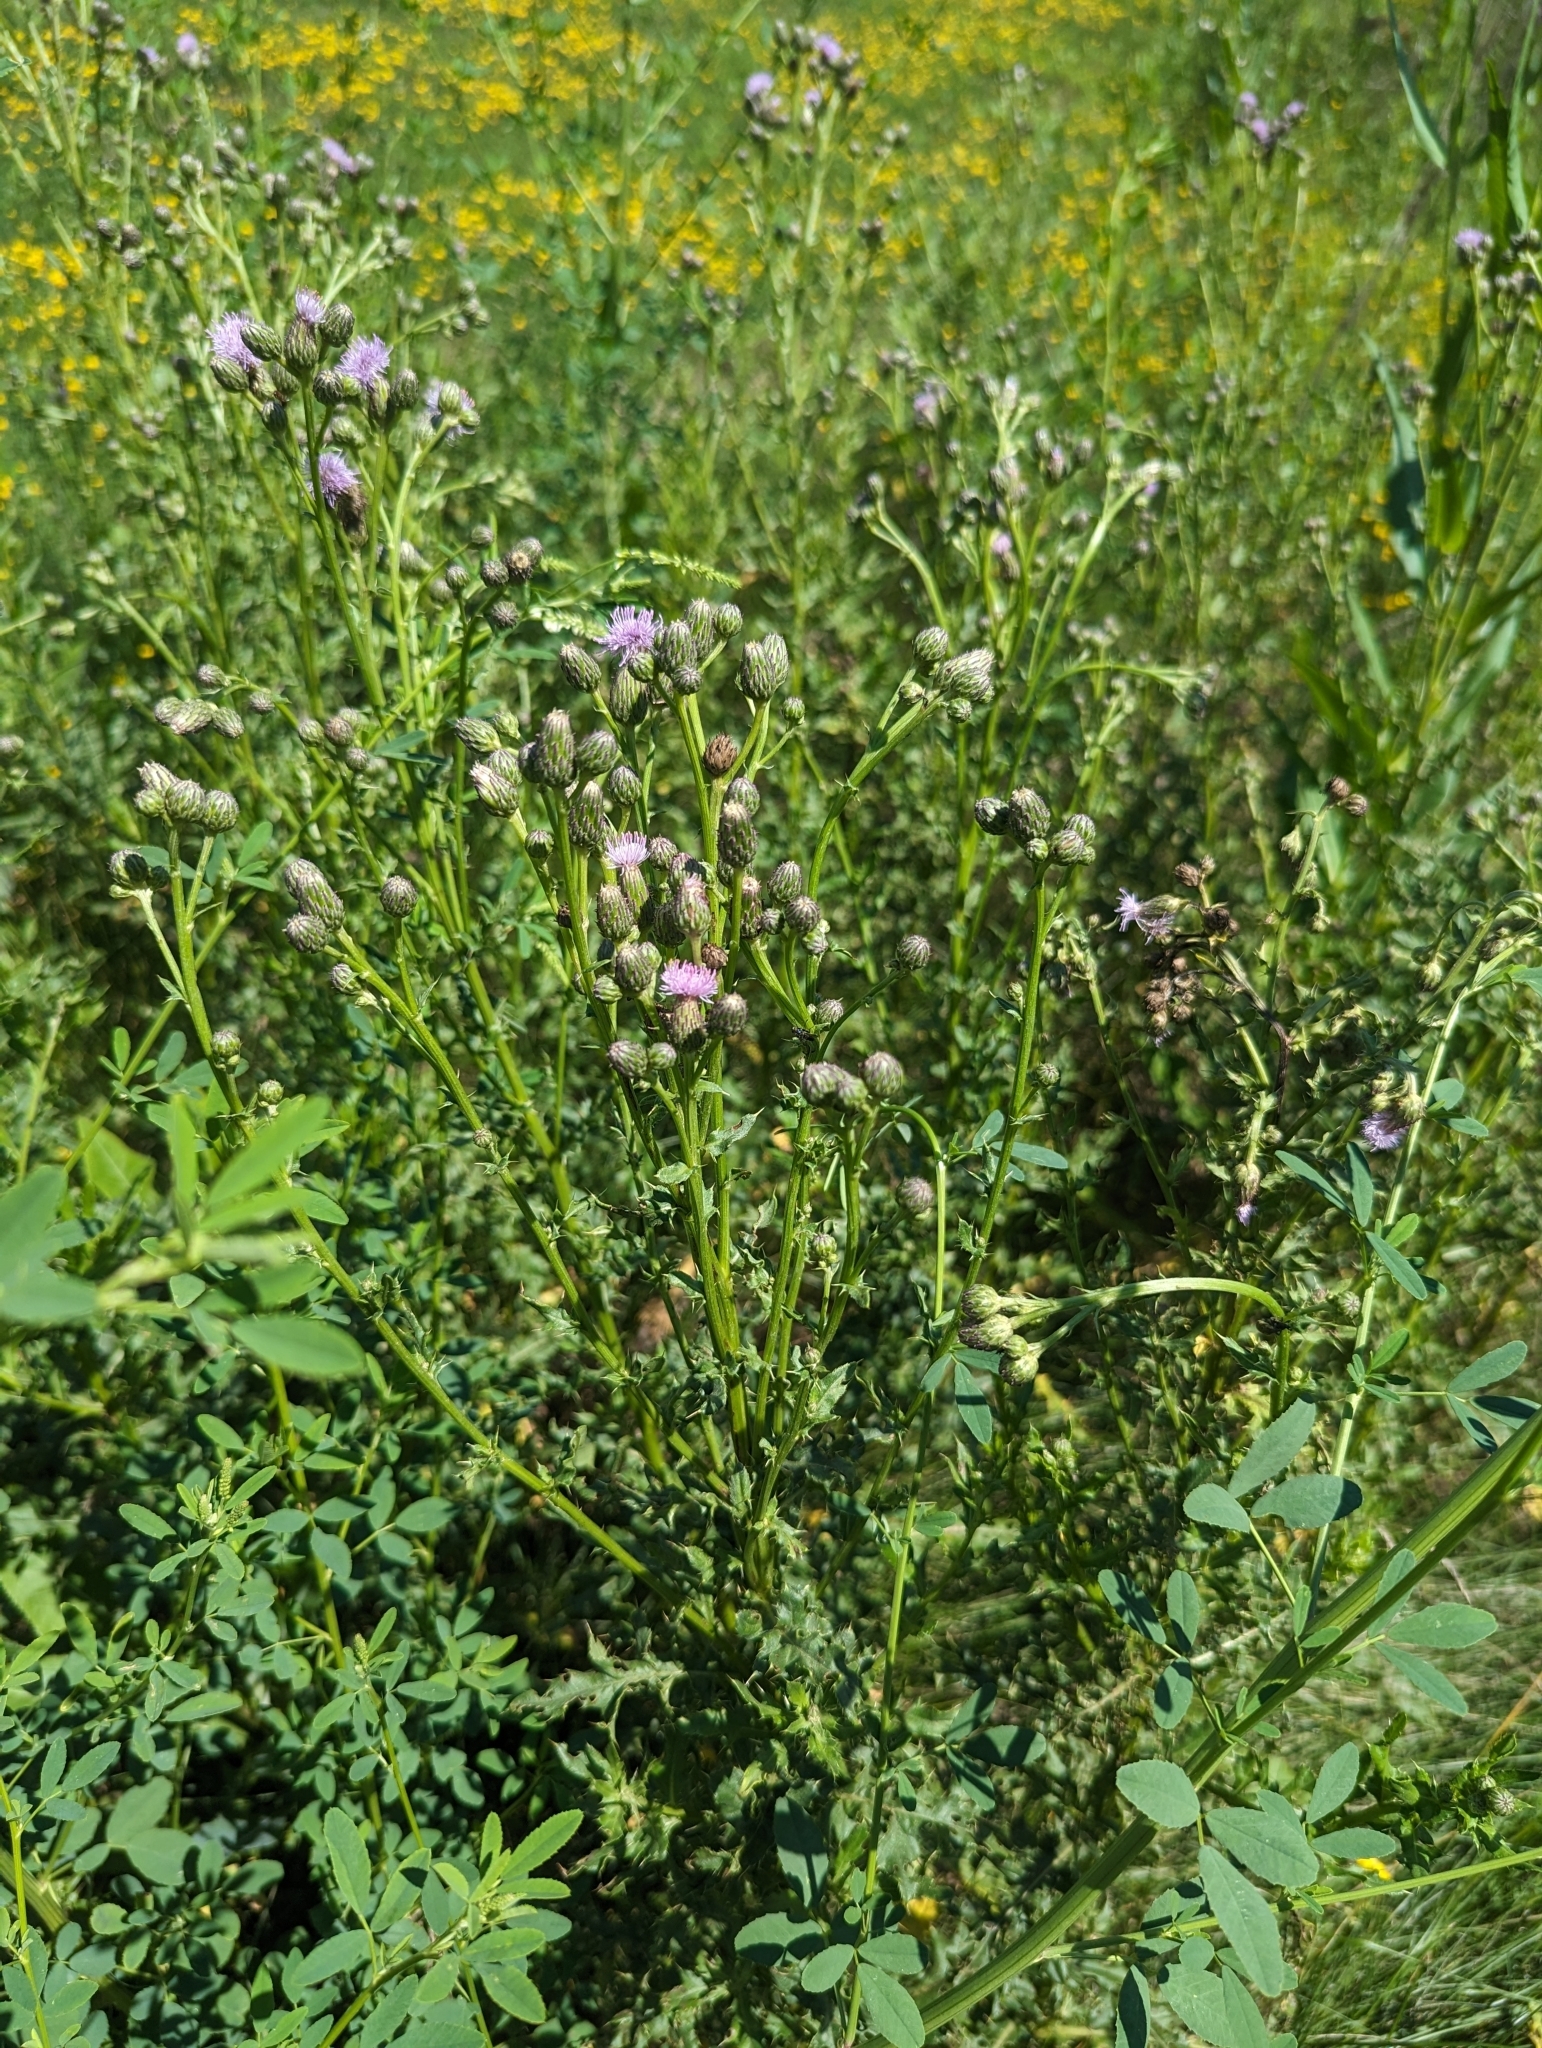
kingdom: Plantae
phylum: Tracheophyta
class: Magnoliopsida
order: Asterales
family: Asteraceae
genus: Cirsium
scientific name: Cirsium arvense
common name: Creeping thistle
